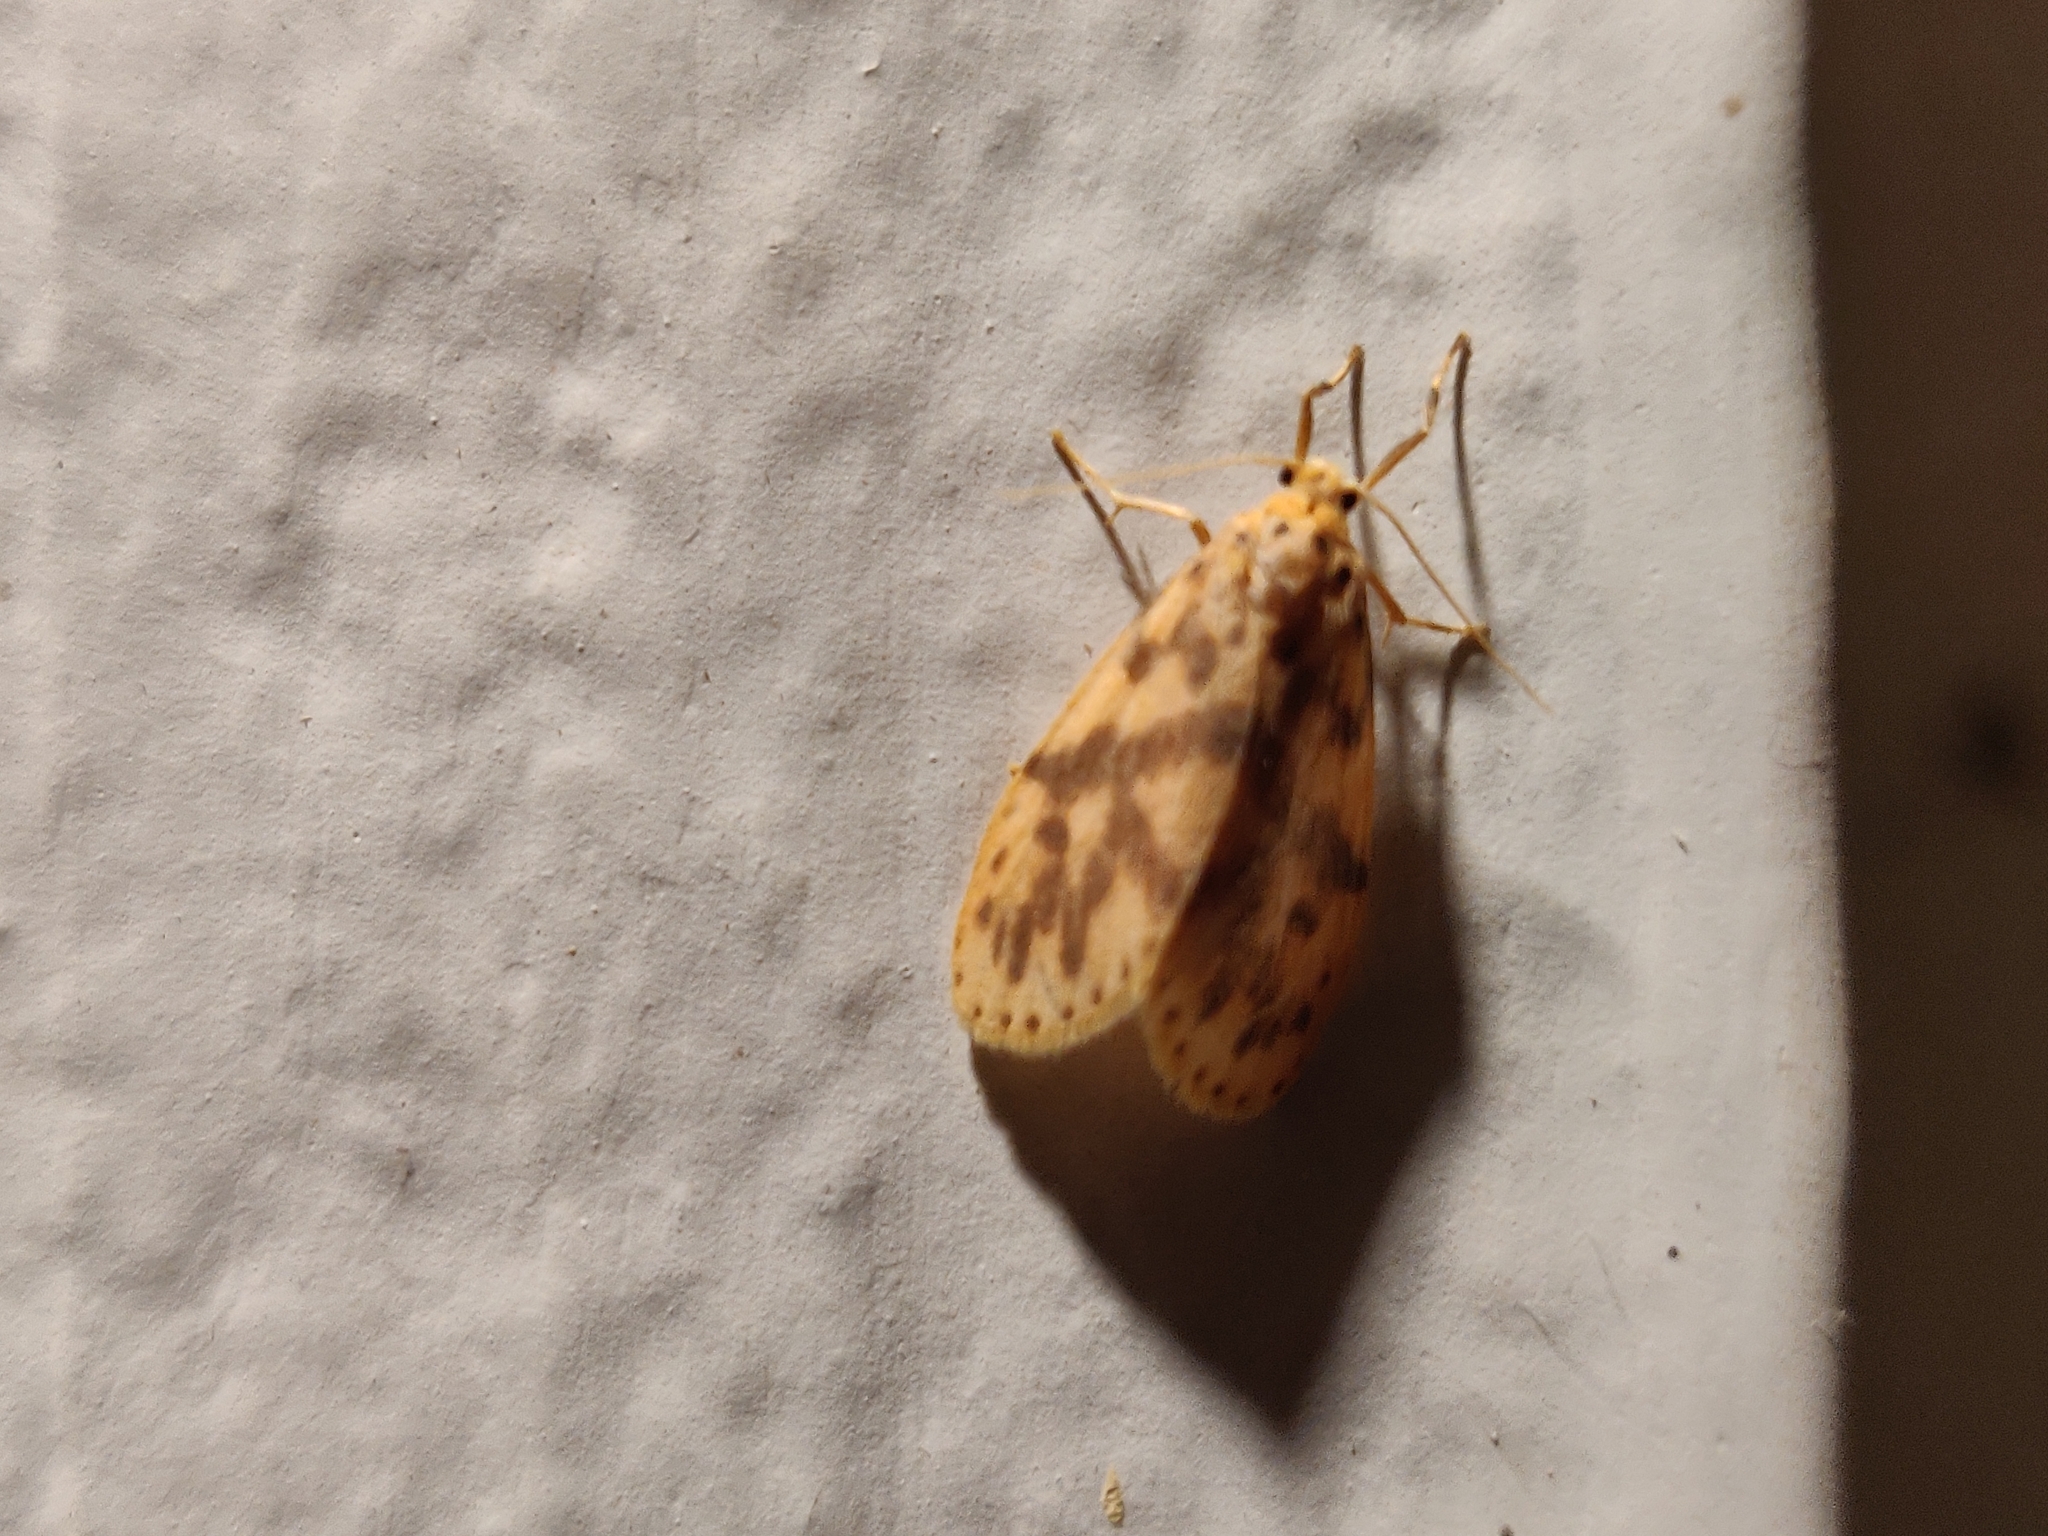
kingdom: Animalia
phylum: Arthropoda
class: Insecta
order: Lepidoptera
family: Erebidae
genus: Nepita
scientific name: Nepita conferta
